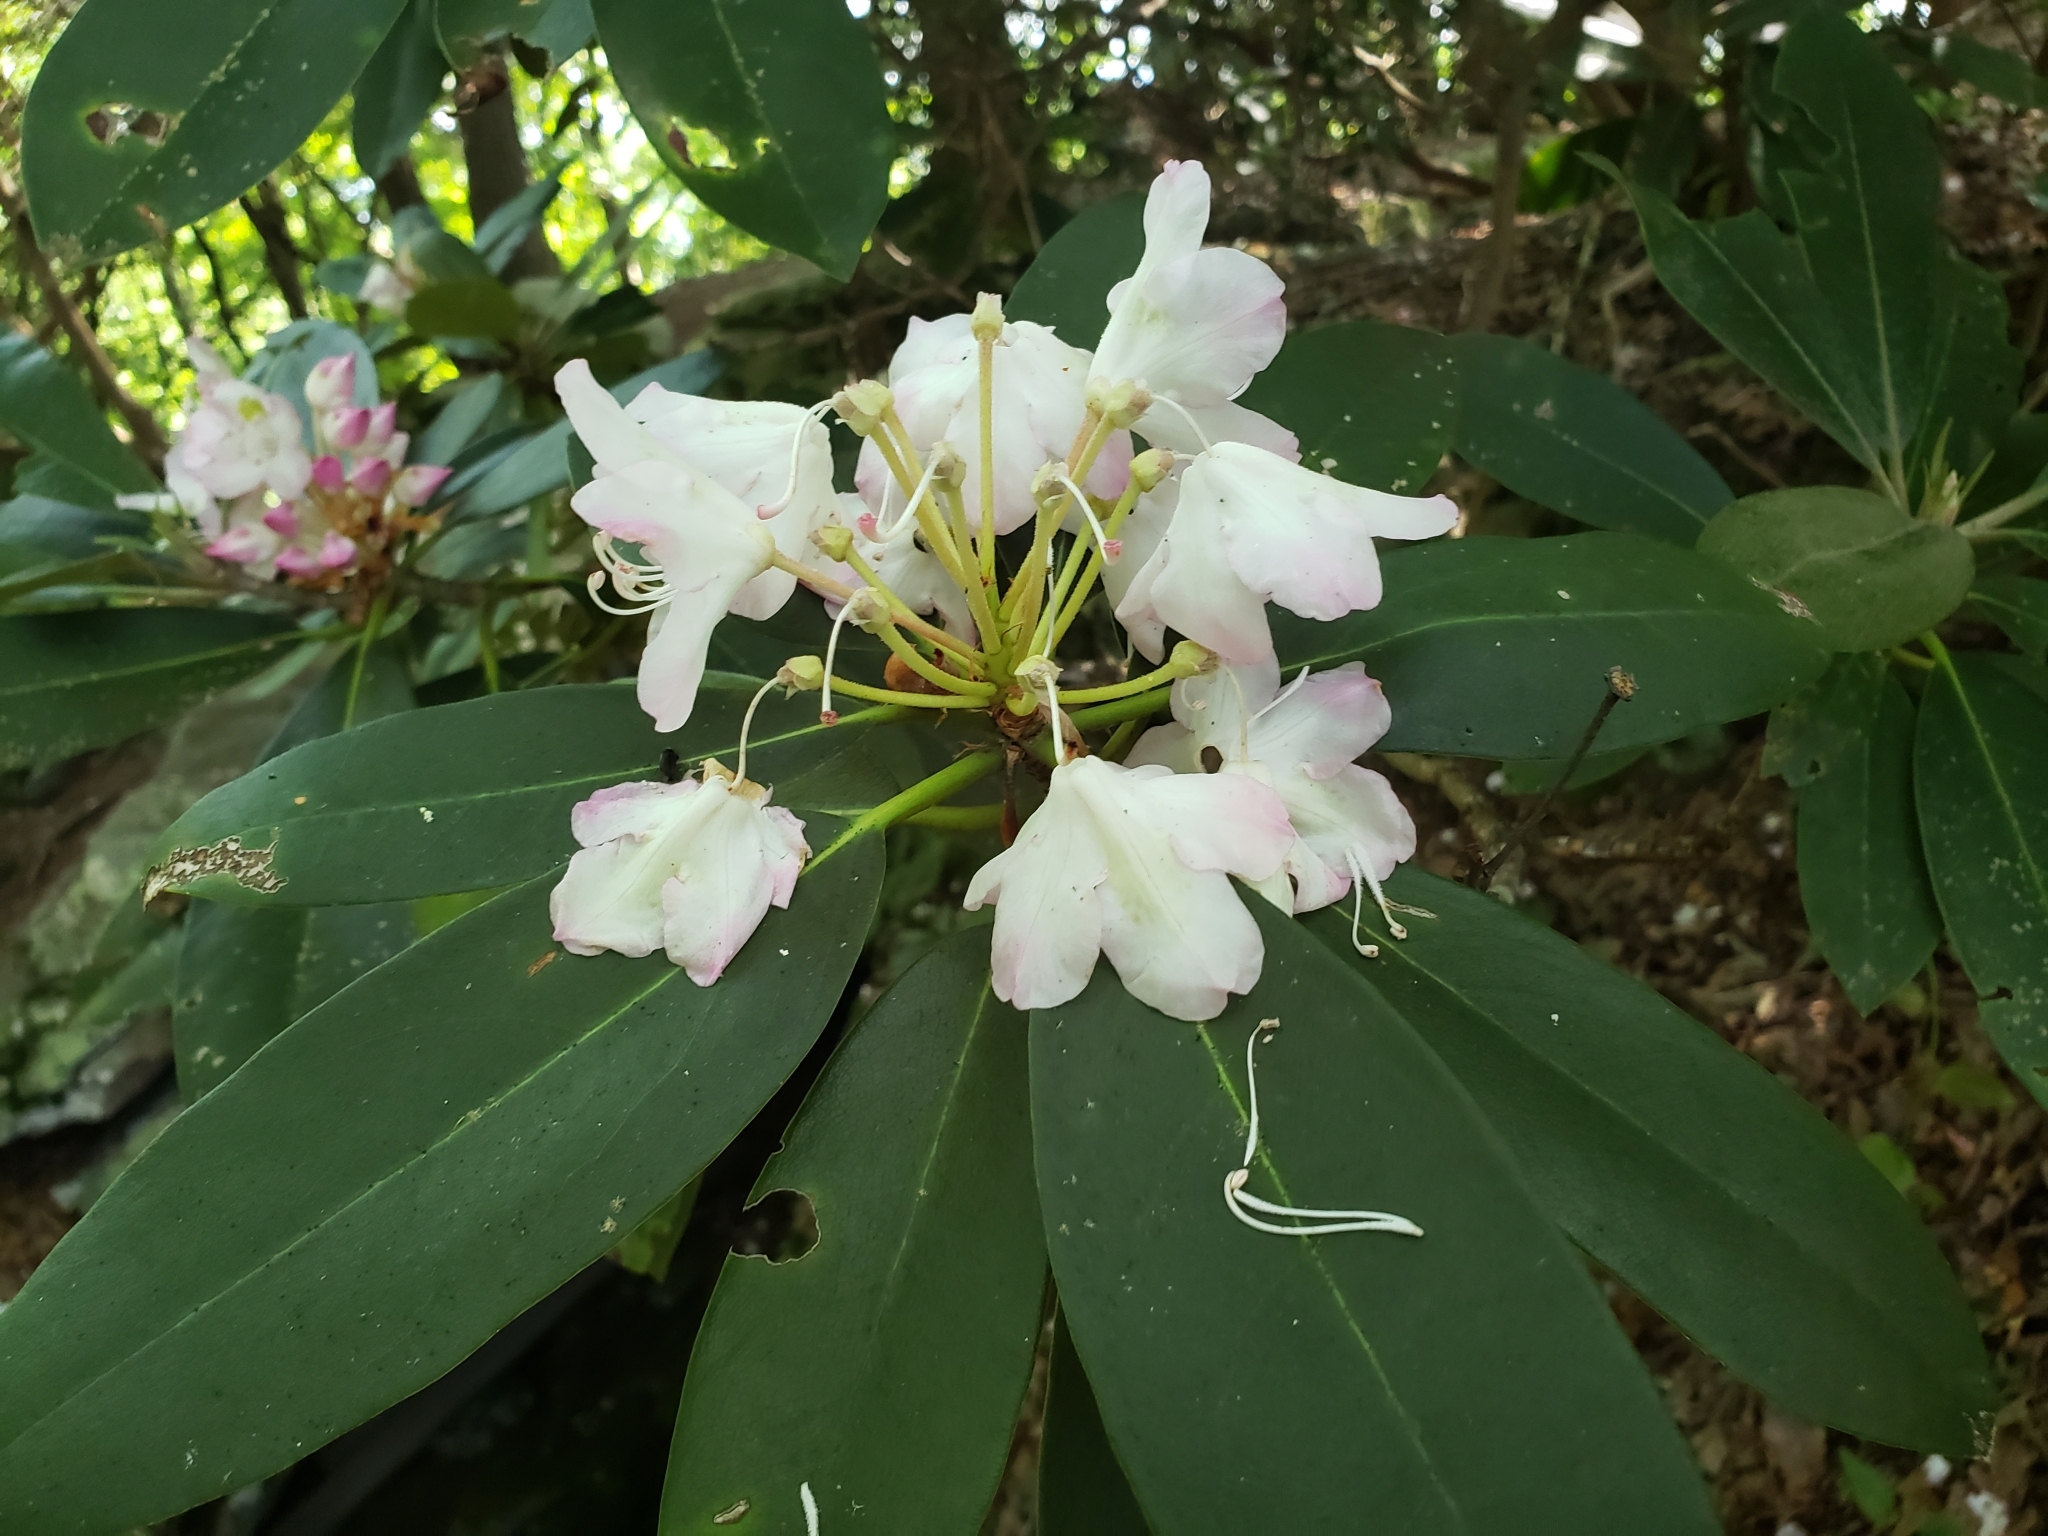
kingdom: Plantae
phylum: Tracheophyta
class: Magnoliopsida
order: Ericales
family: Ericaceae
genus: Rhododendron
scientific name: Rhododendron maximum
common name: Great rhododendron
